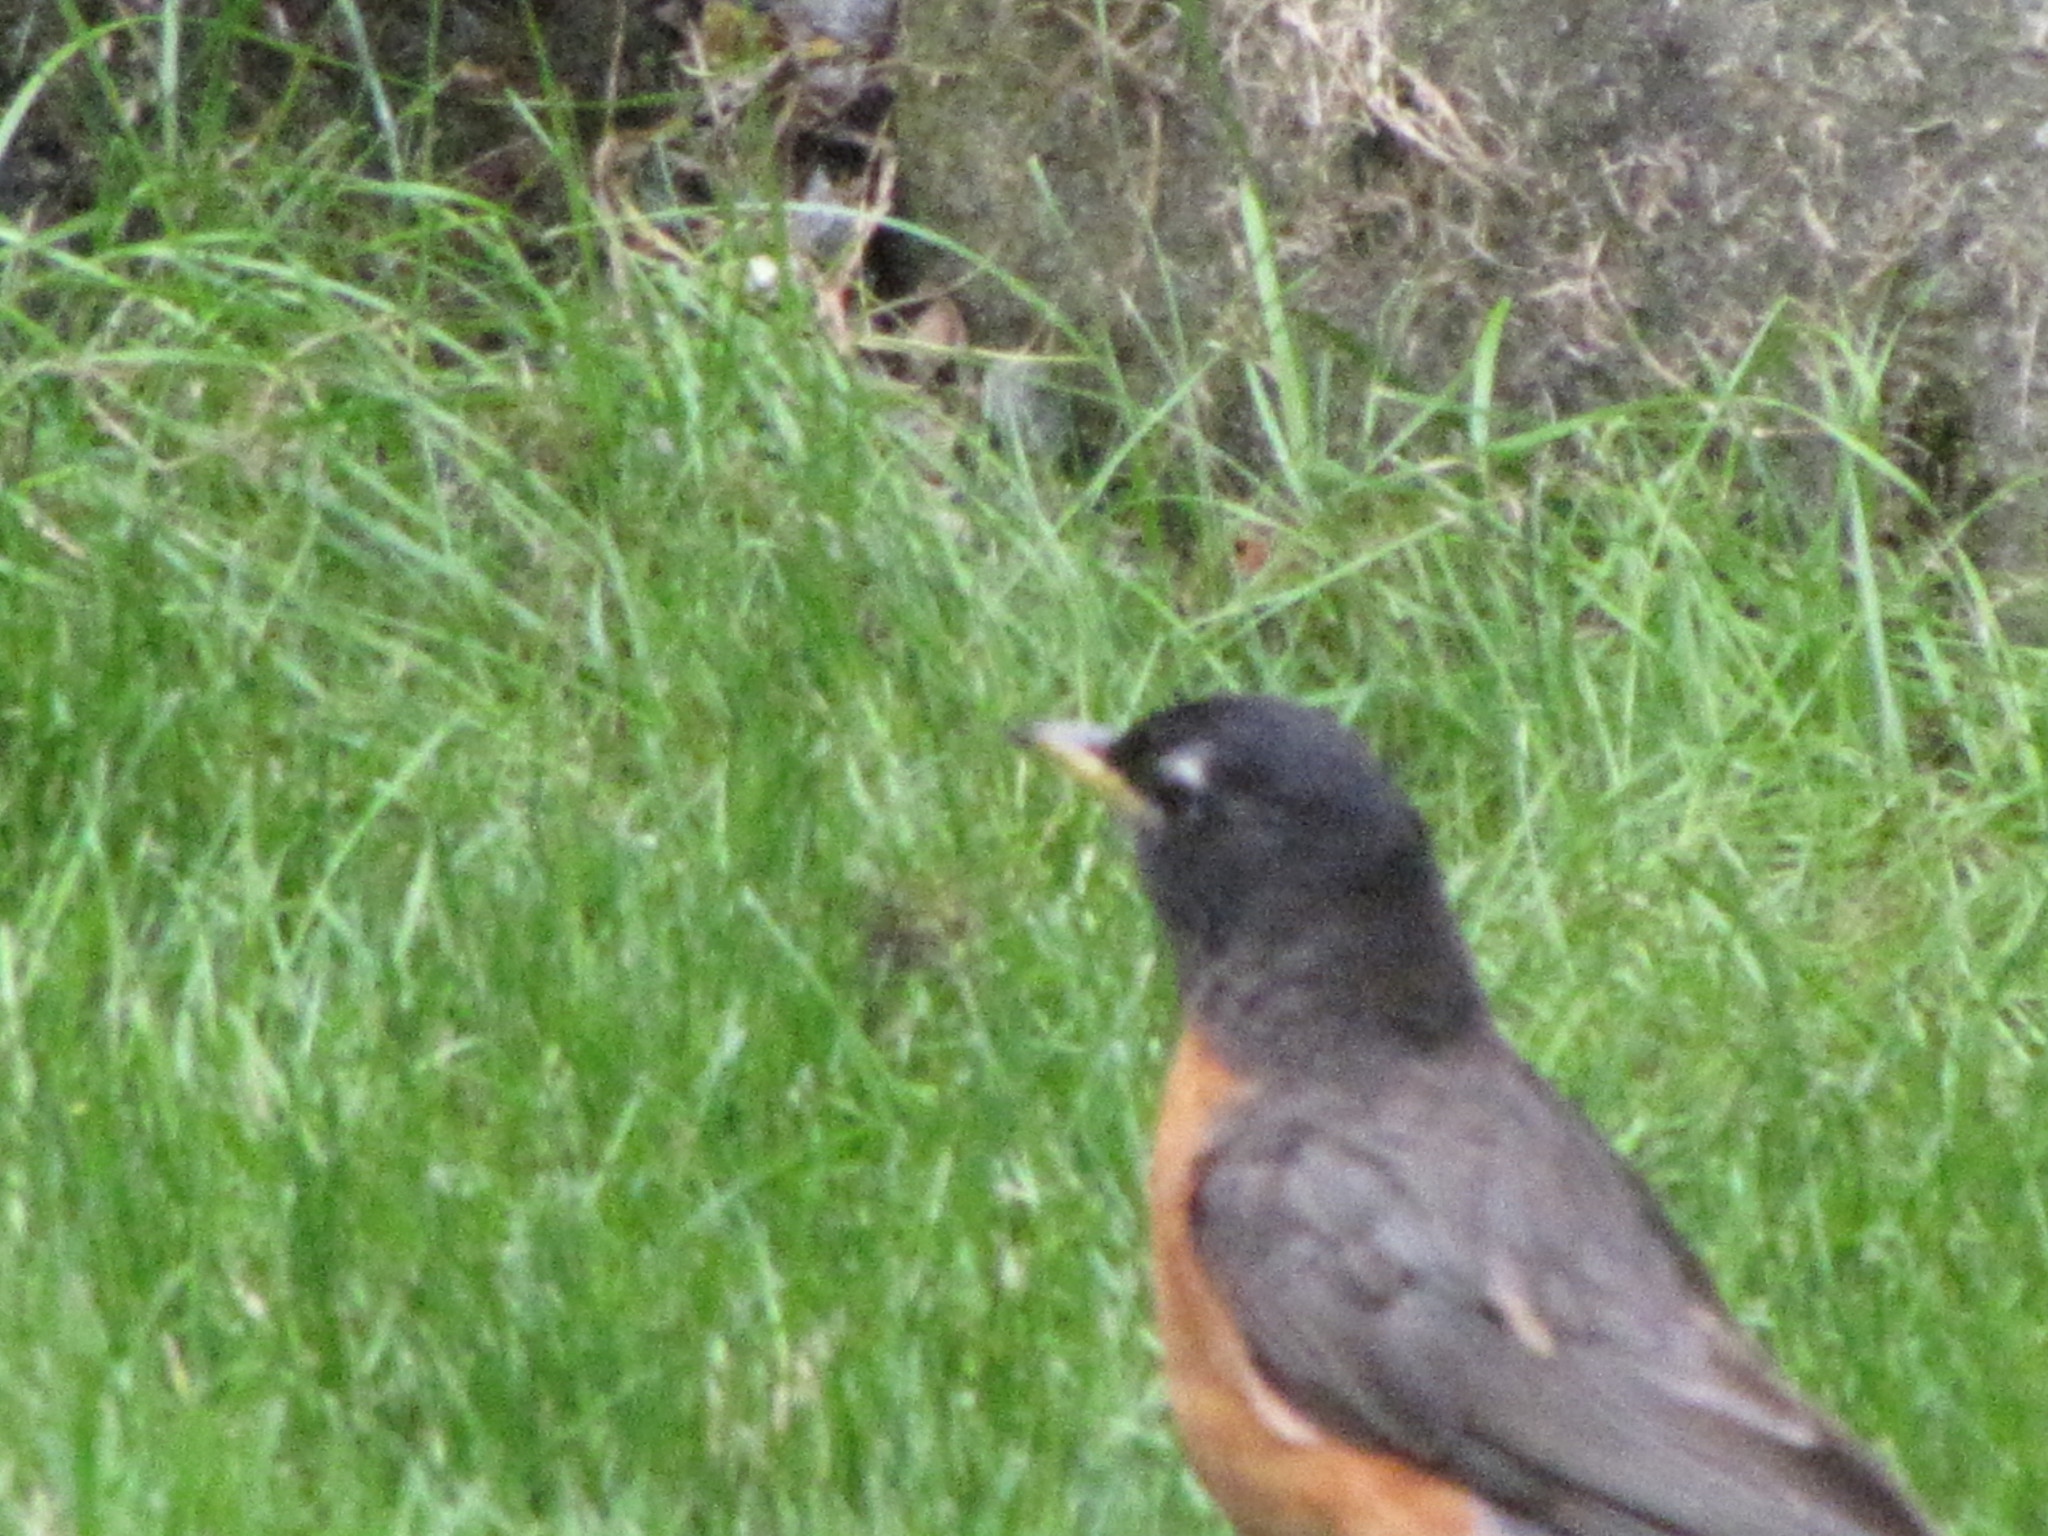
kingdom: Animalia
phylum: Chordata
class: Aves
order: Passeriformes
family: Turdidae
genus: Turdus
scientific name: Turdus migratorius
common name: American robin
